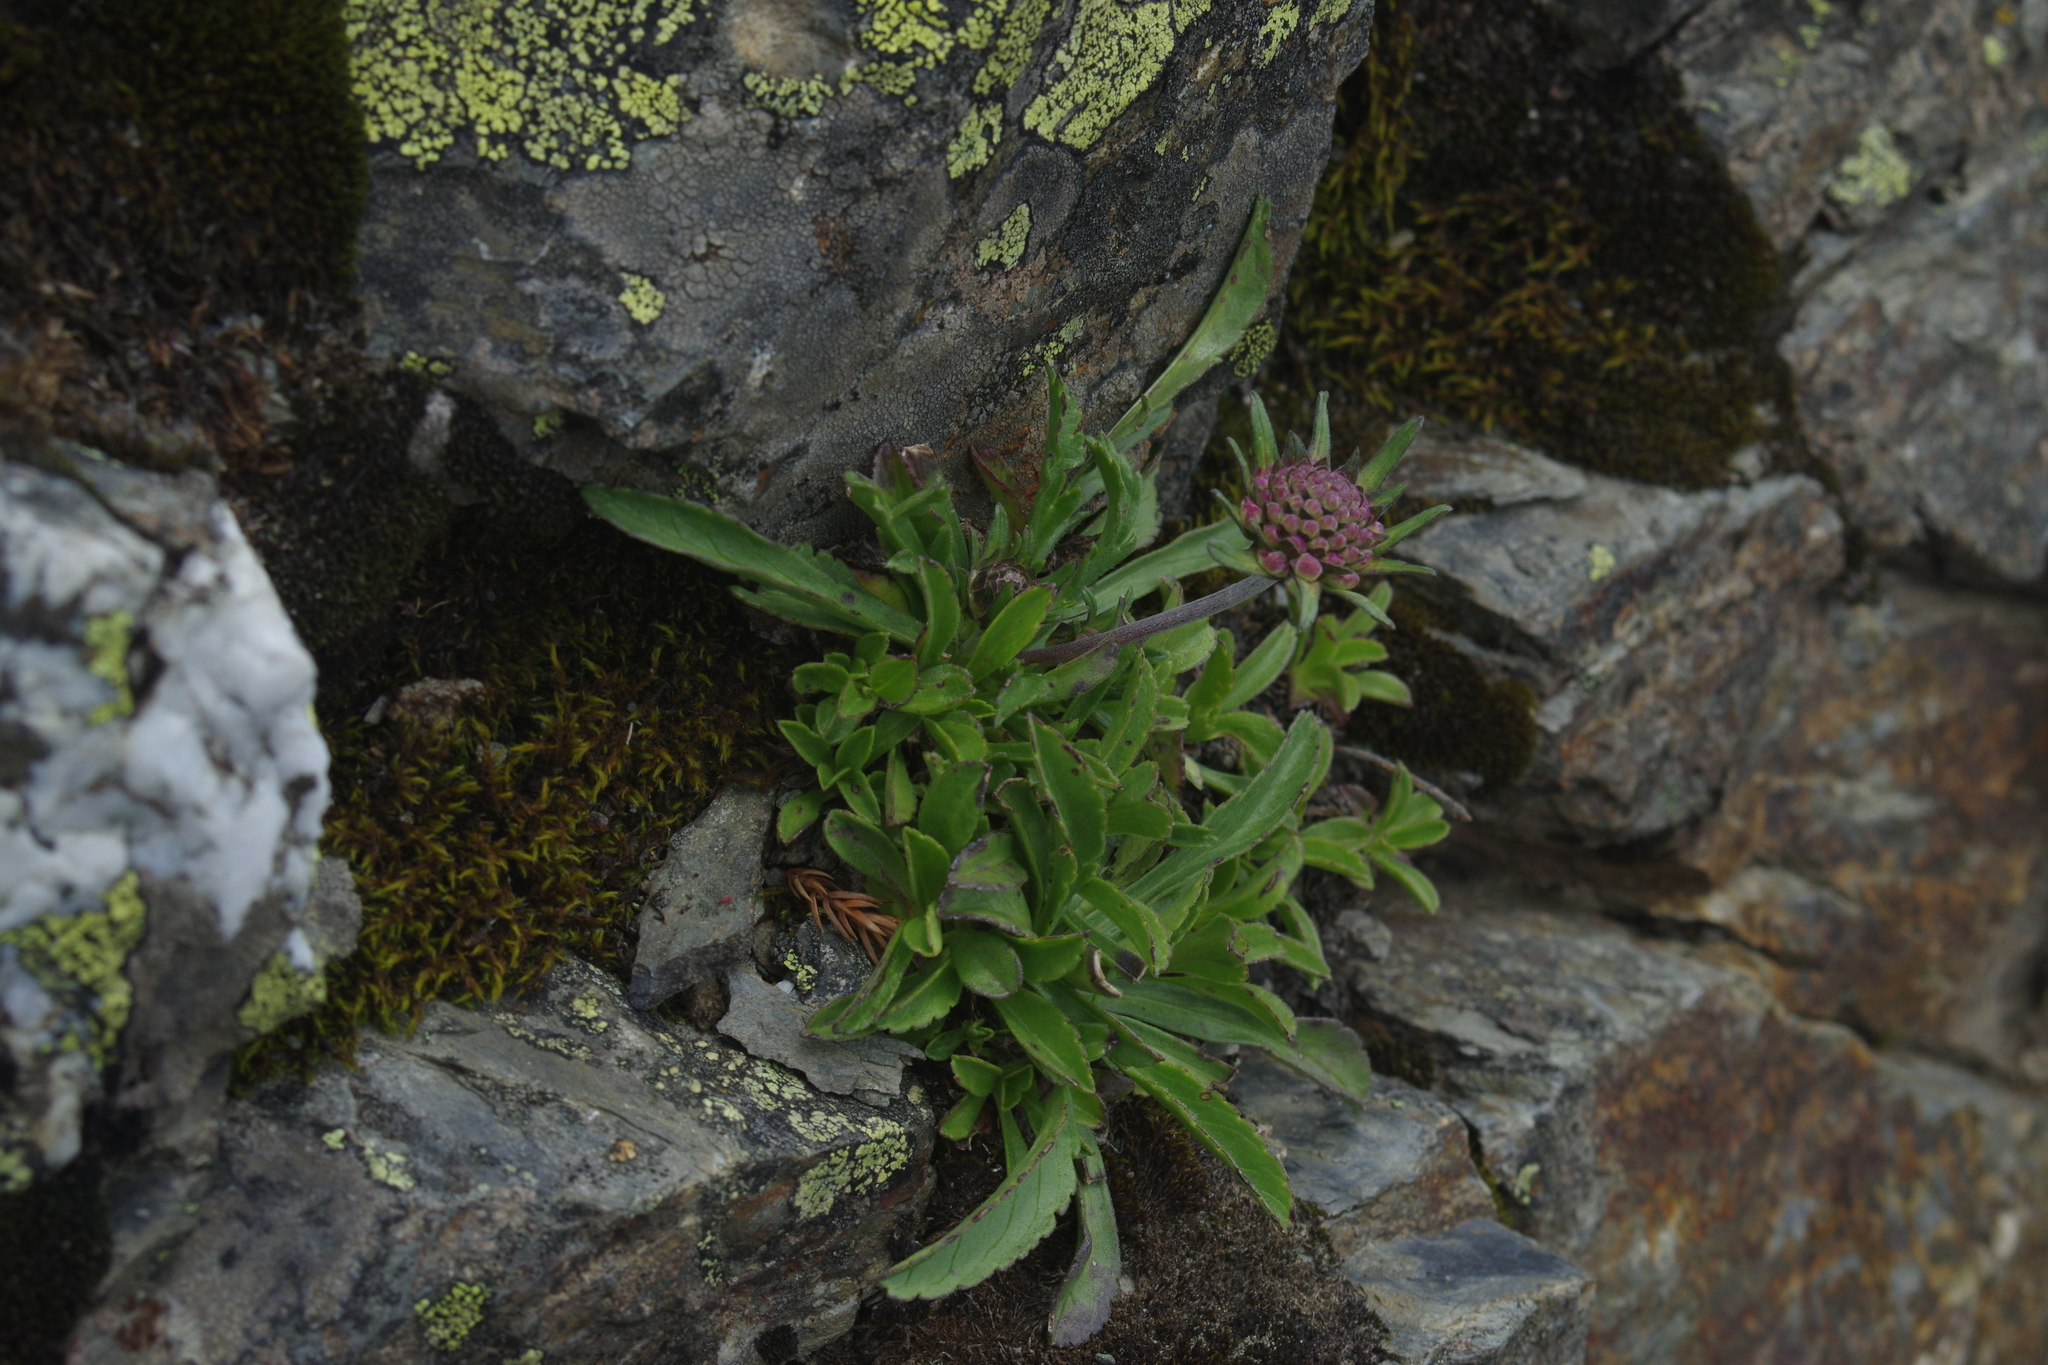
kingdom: Plantae
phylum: Tracheophyta
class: Magnoliopsida
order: Dipsacales
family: Caprifoliaceae
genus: Scabiosa
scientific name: Scabiosa lacerifolia
